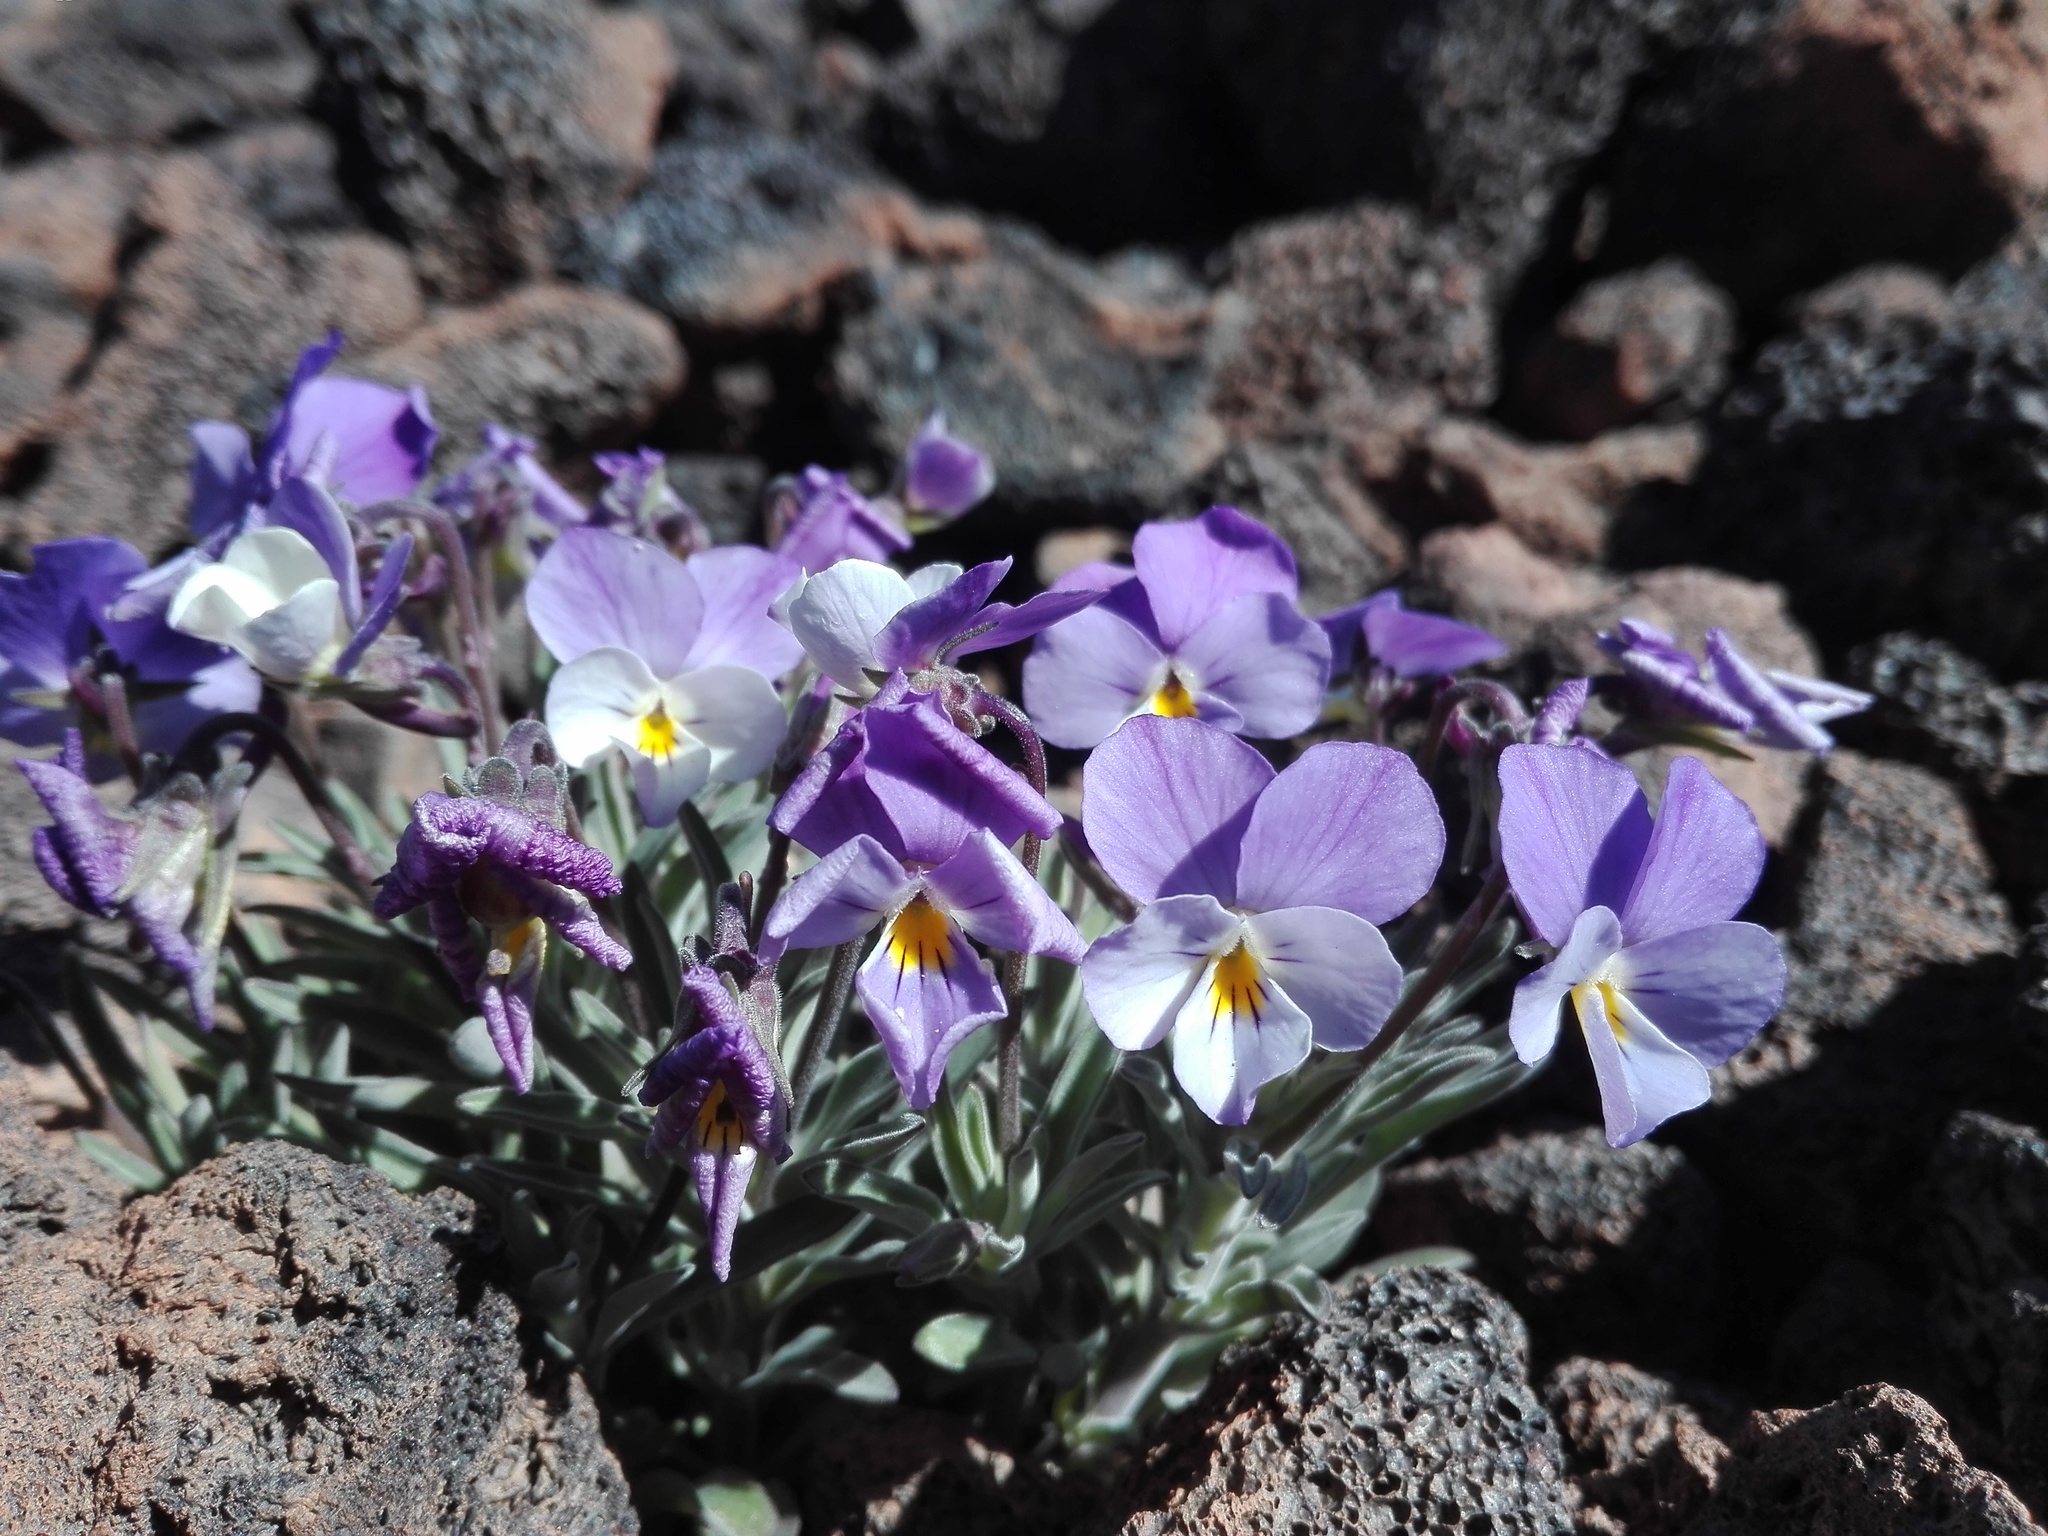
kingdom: Plantae
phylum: Tracheophyta
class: Magnoliopsida
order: Malpighiales
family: Violaceae
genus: Viola
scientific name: Viola cheiranthifolia
